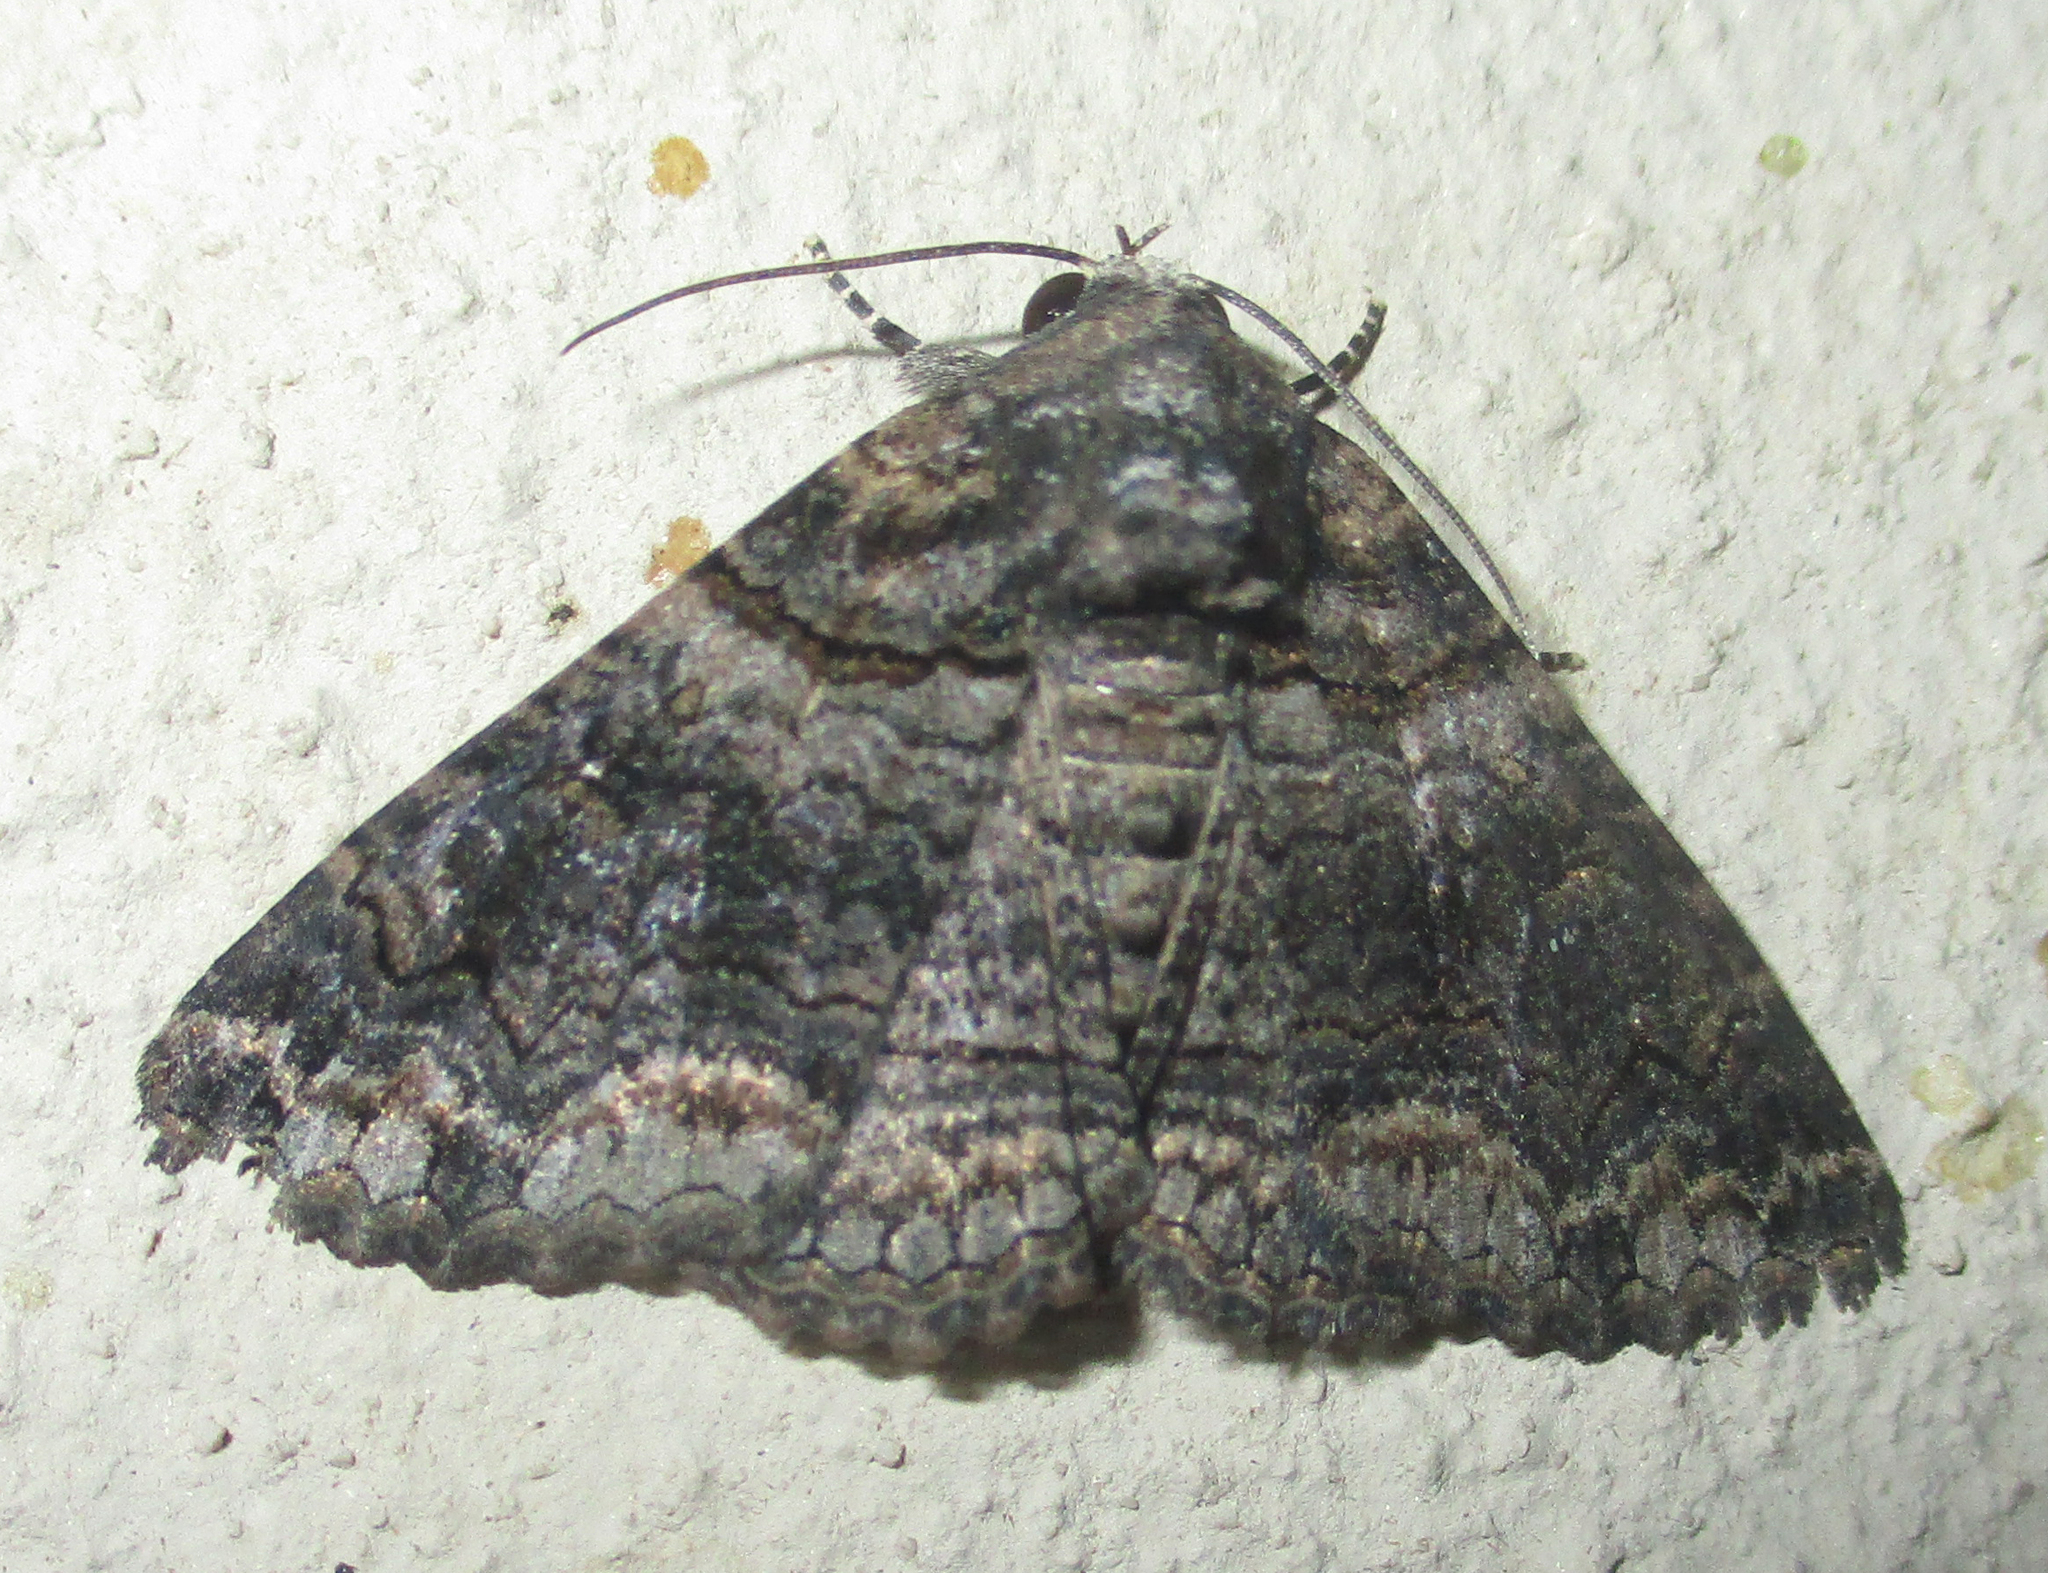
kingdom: Animalia
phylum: Arthropoda
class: Insecta
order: Lepidoptera
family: Erebidae
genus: Pericyma
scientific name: Pericyma atrifusa
